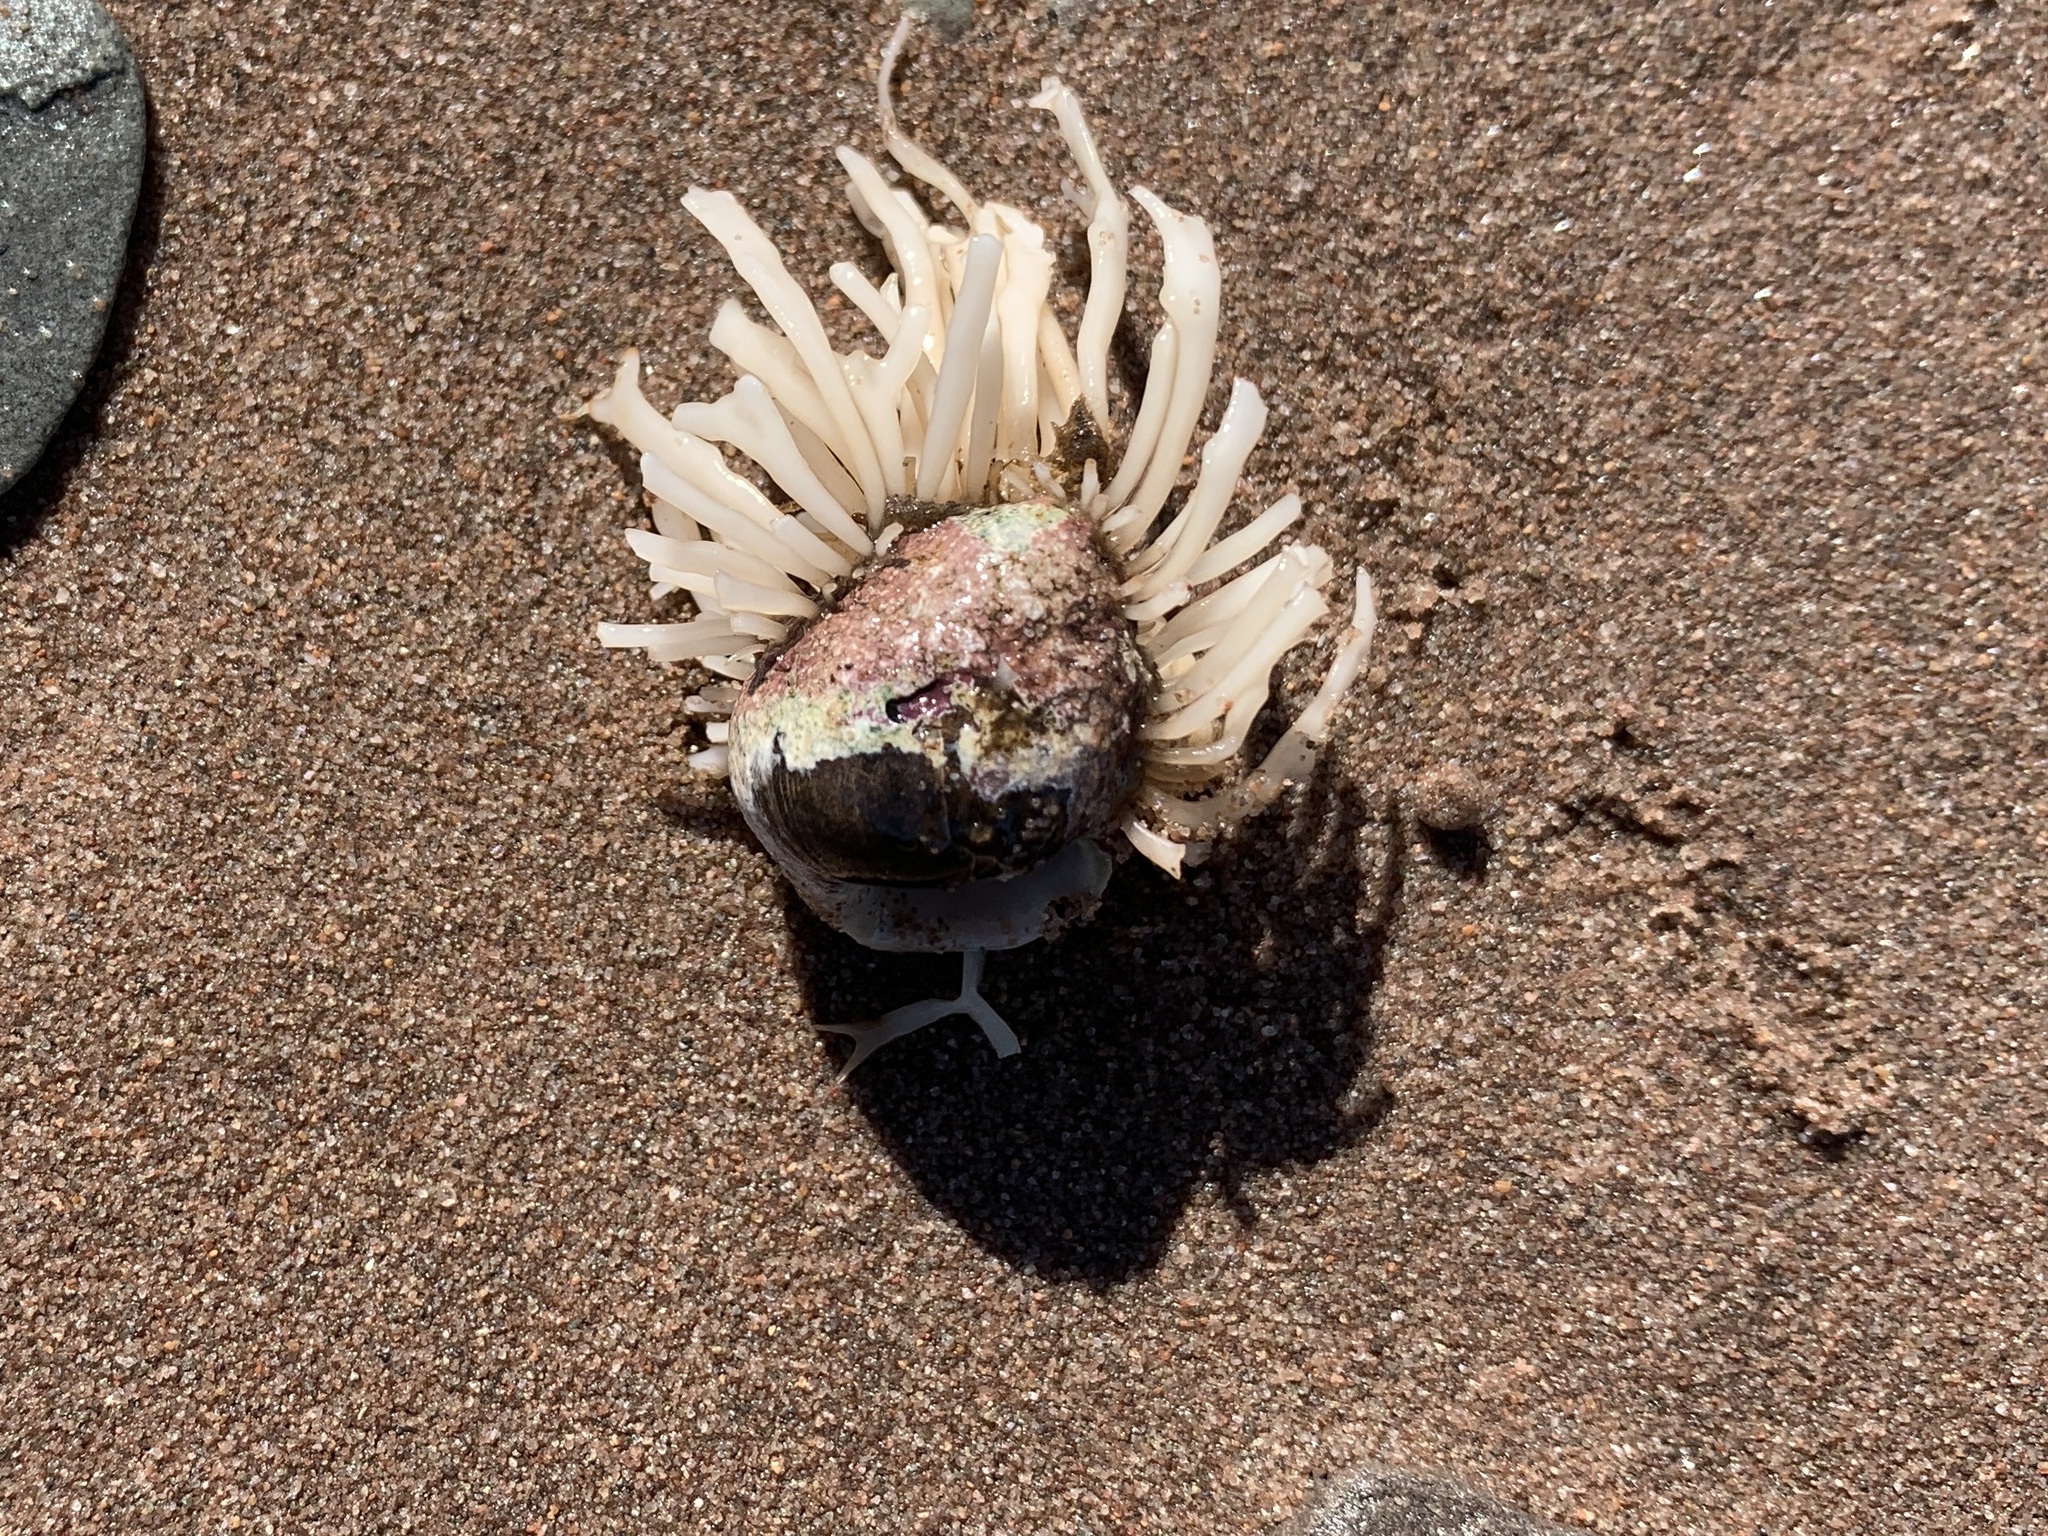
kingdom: Animalia
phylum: Mollusca
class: Gastropoda
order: Littorinimorpha
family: Littorinidae
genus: Littorina
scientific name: Littorina littorea
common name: Common periwinkle
